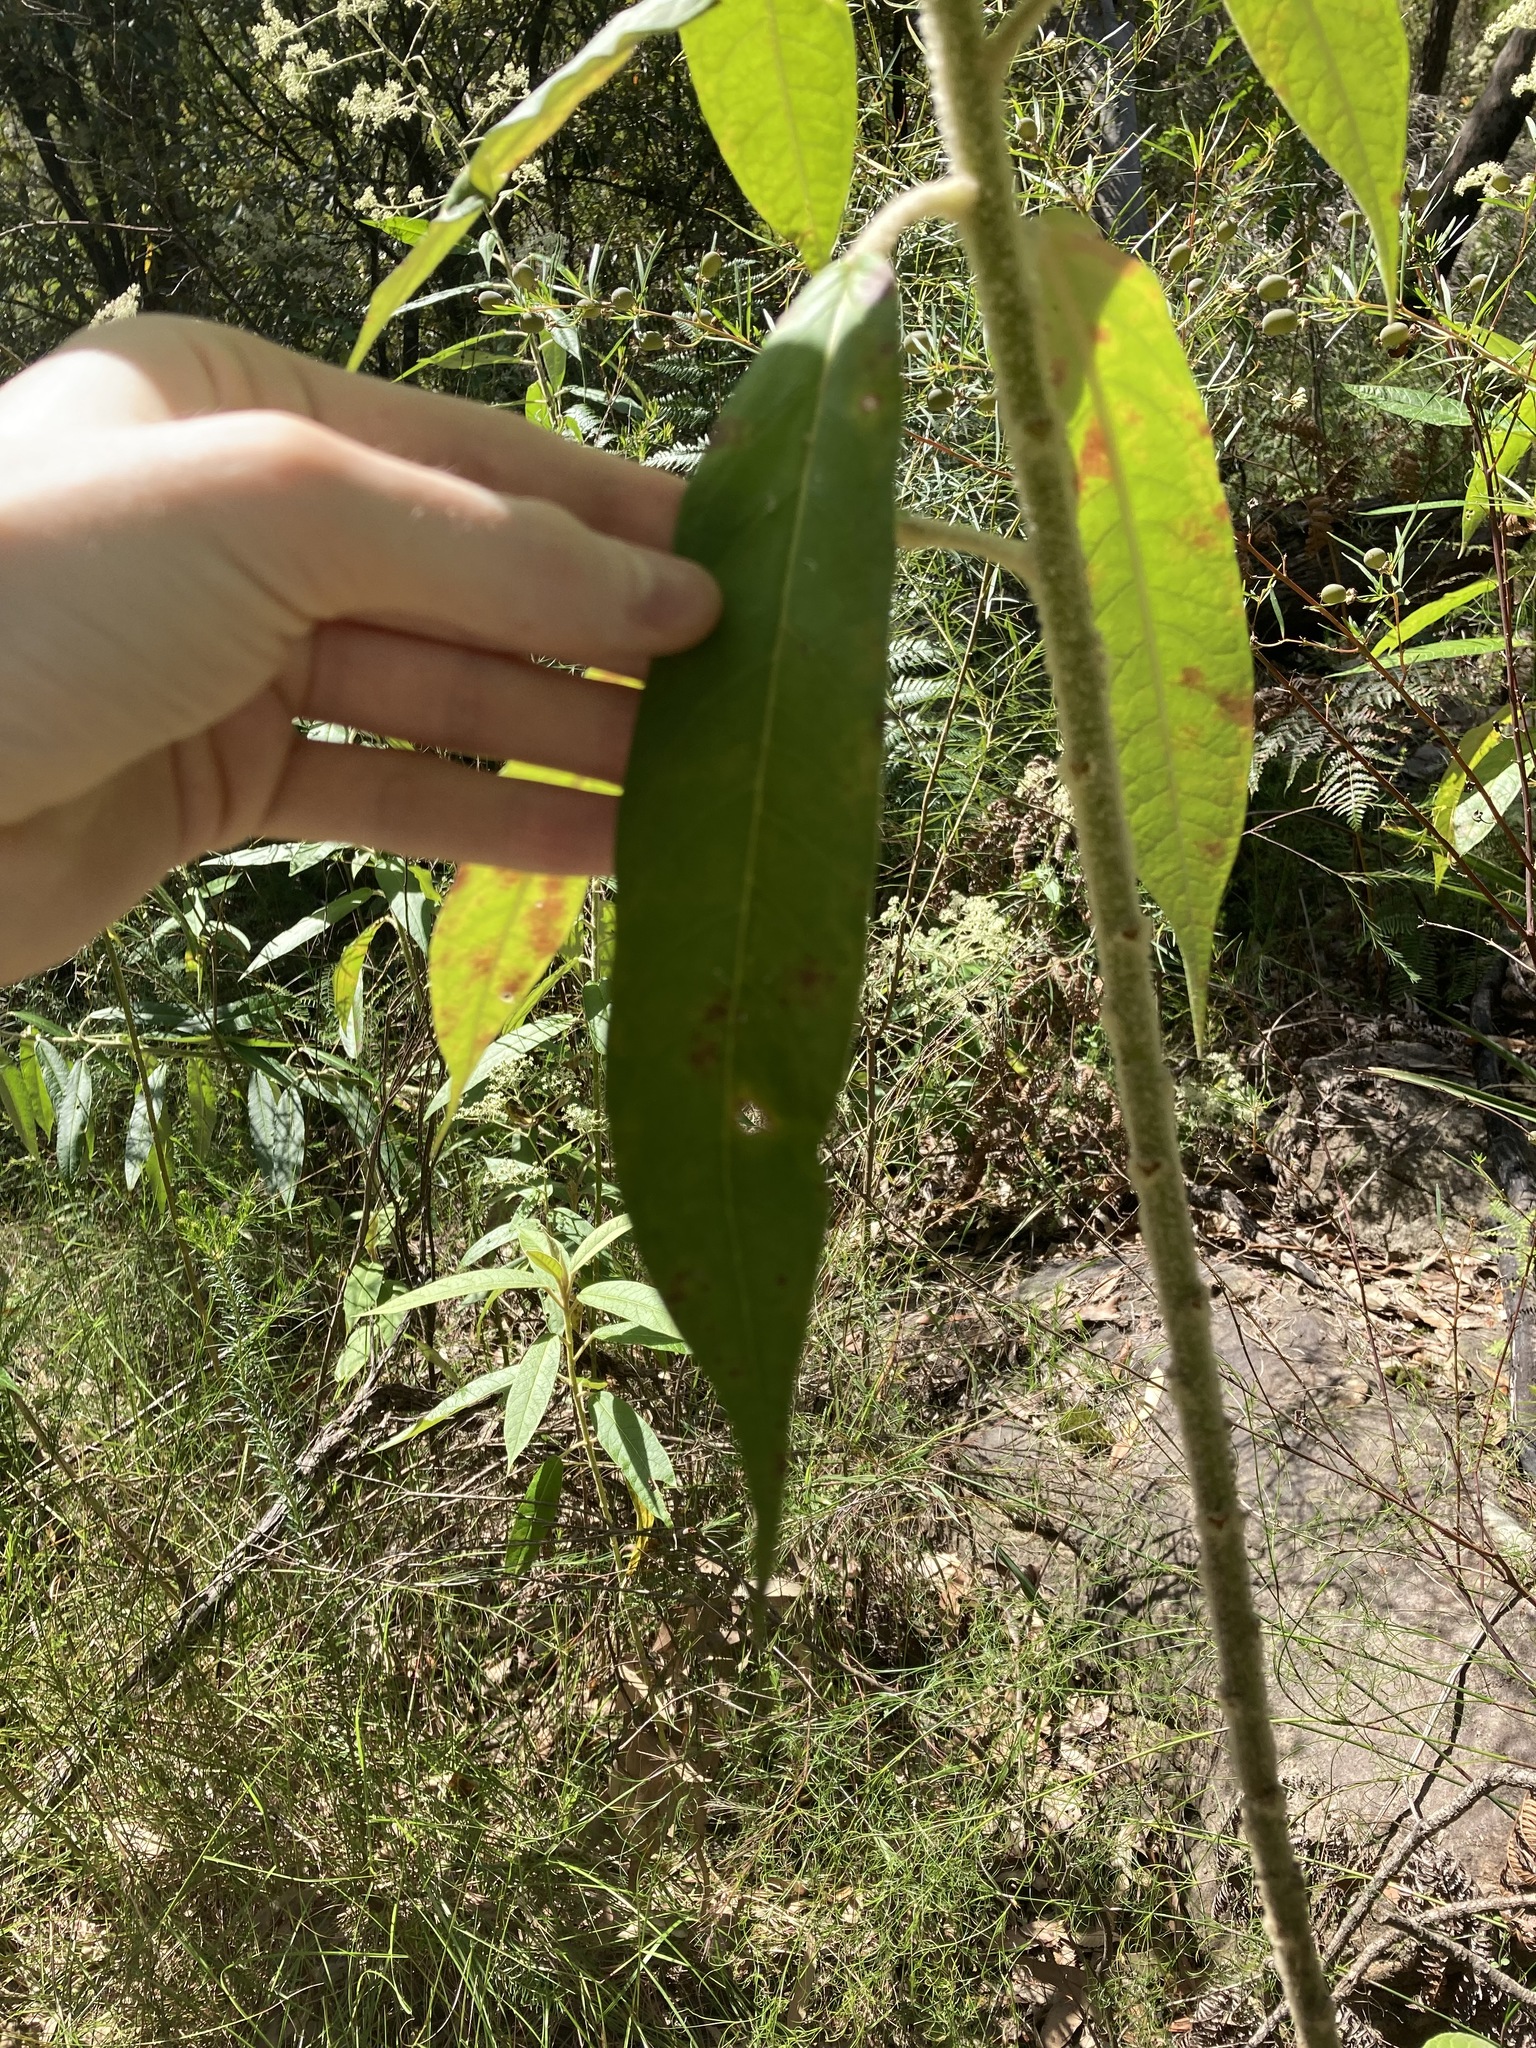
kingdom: Plantae
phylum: Tracheophyta
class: Magnoliopsida
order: Apiales
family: Araliaceae
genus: Astrotricha
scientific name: Astrotricha floccosa
